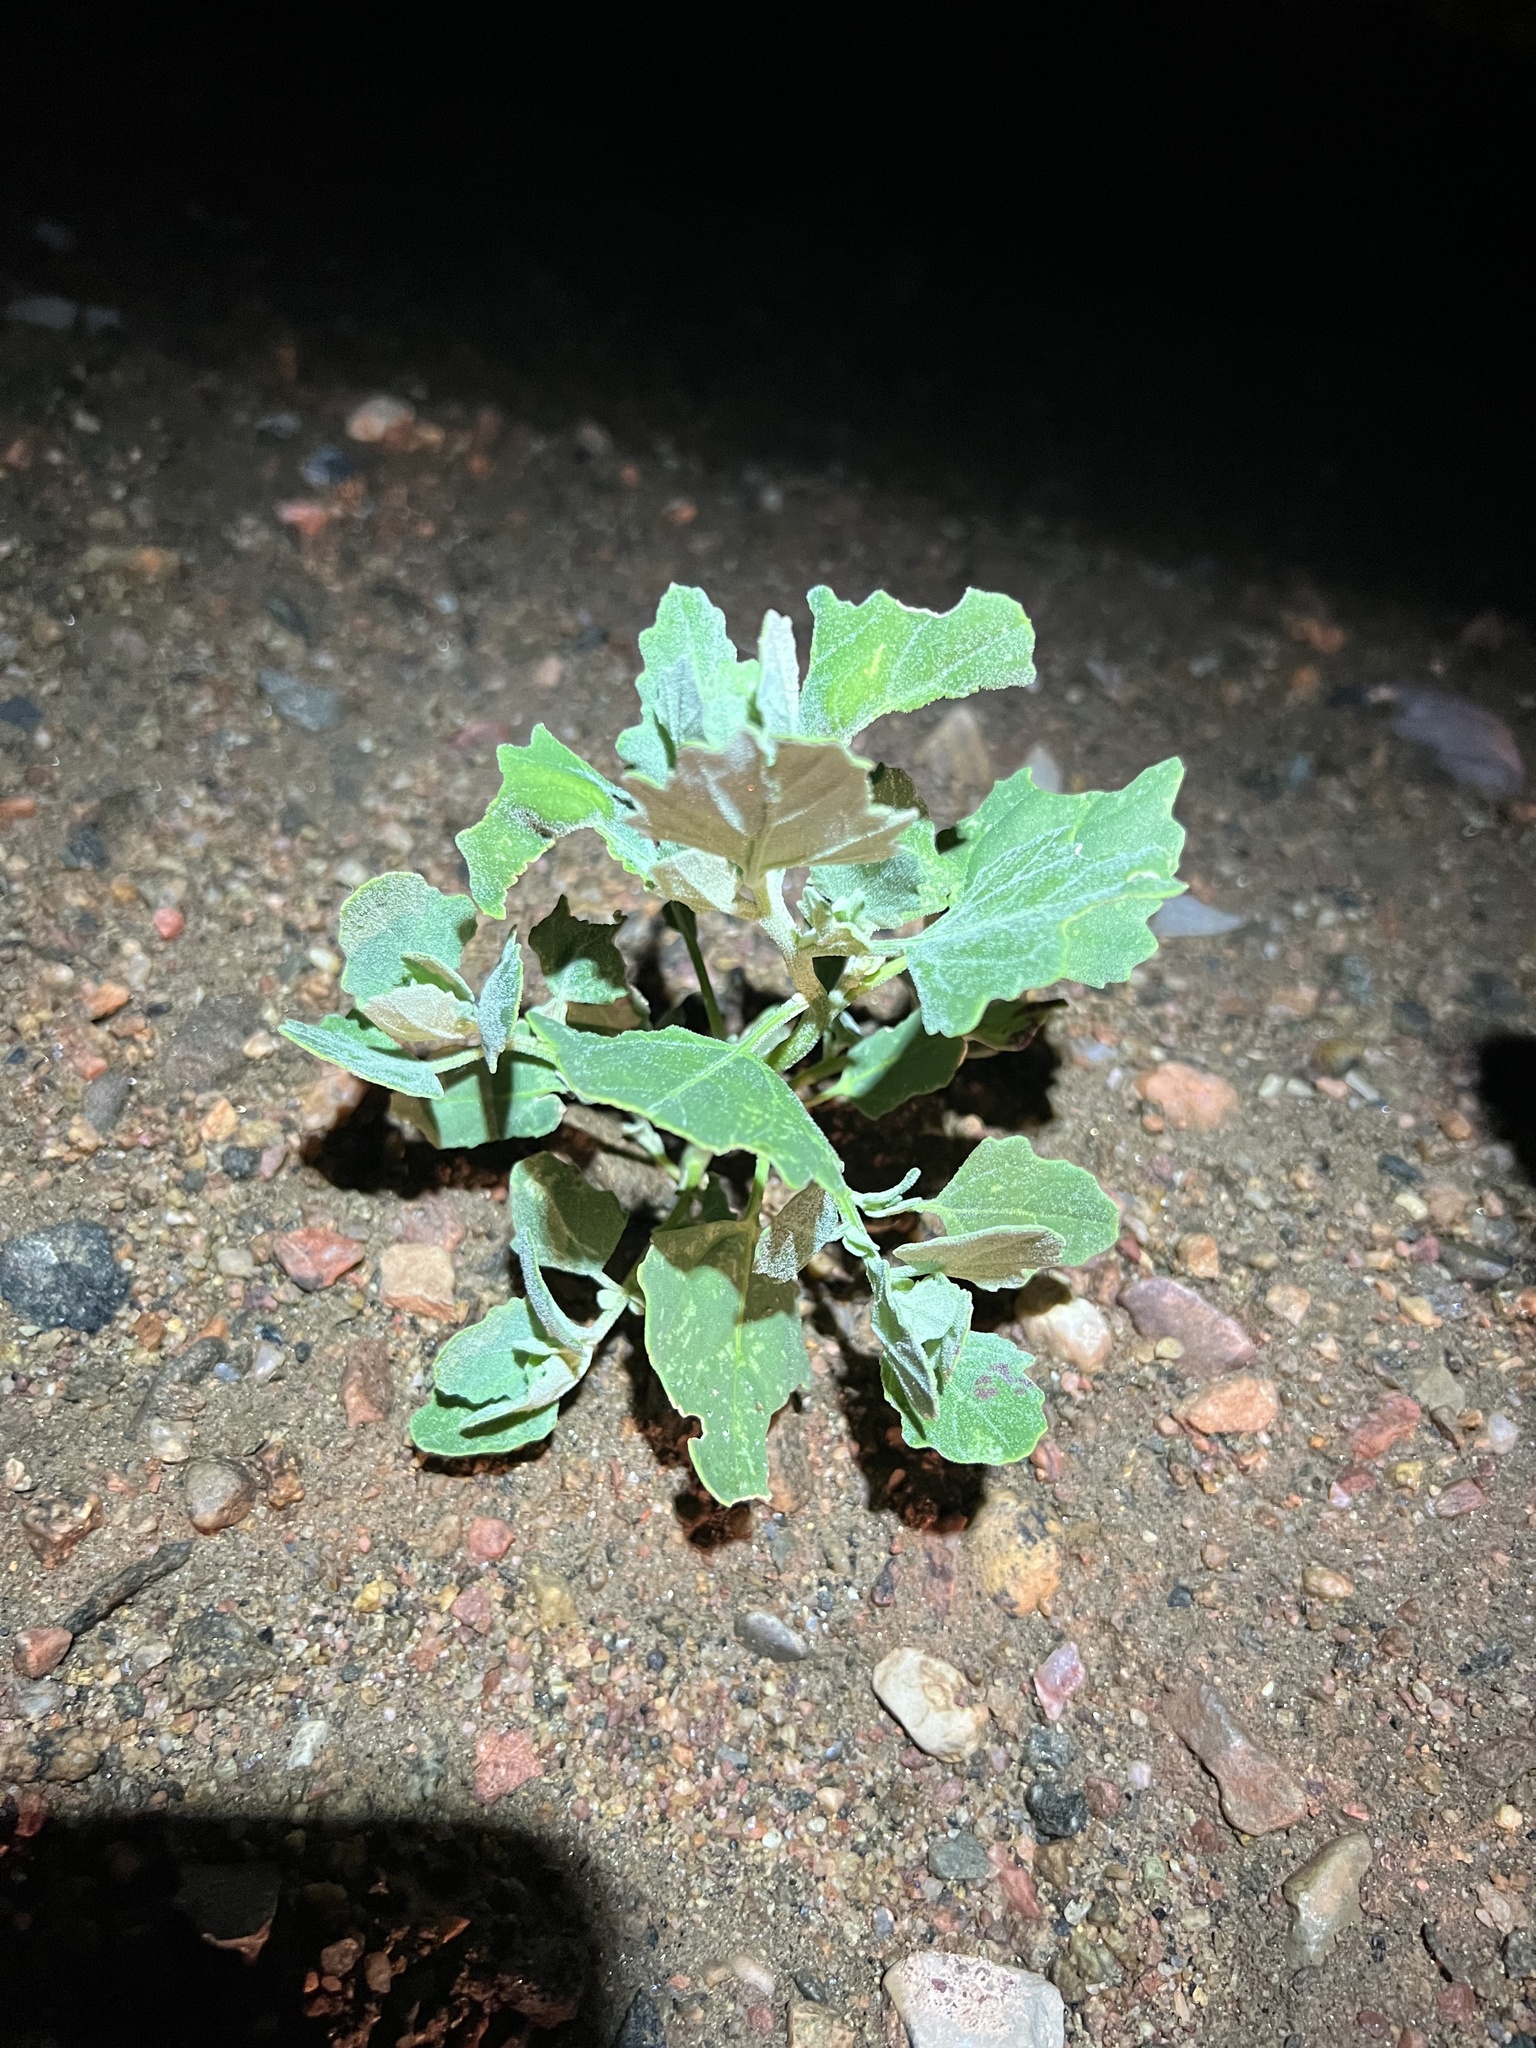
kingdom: Plantae
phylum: Tracheophyta
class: Magnoliopsida
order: Caryophyllales
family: Amaranthaceae
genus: Chenopodium
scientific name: Chenopodium album
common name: Fat-hen
